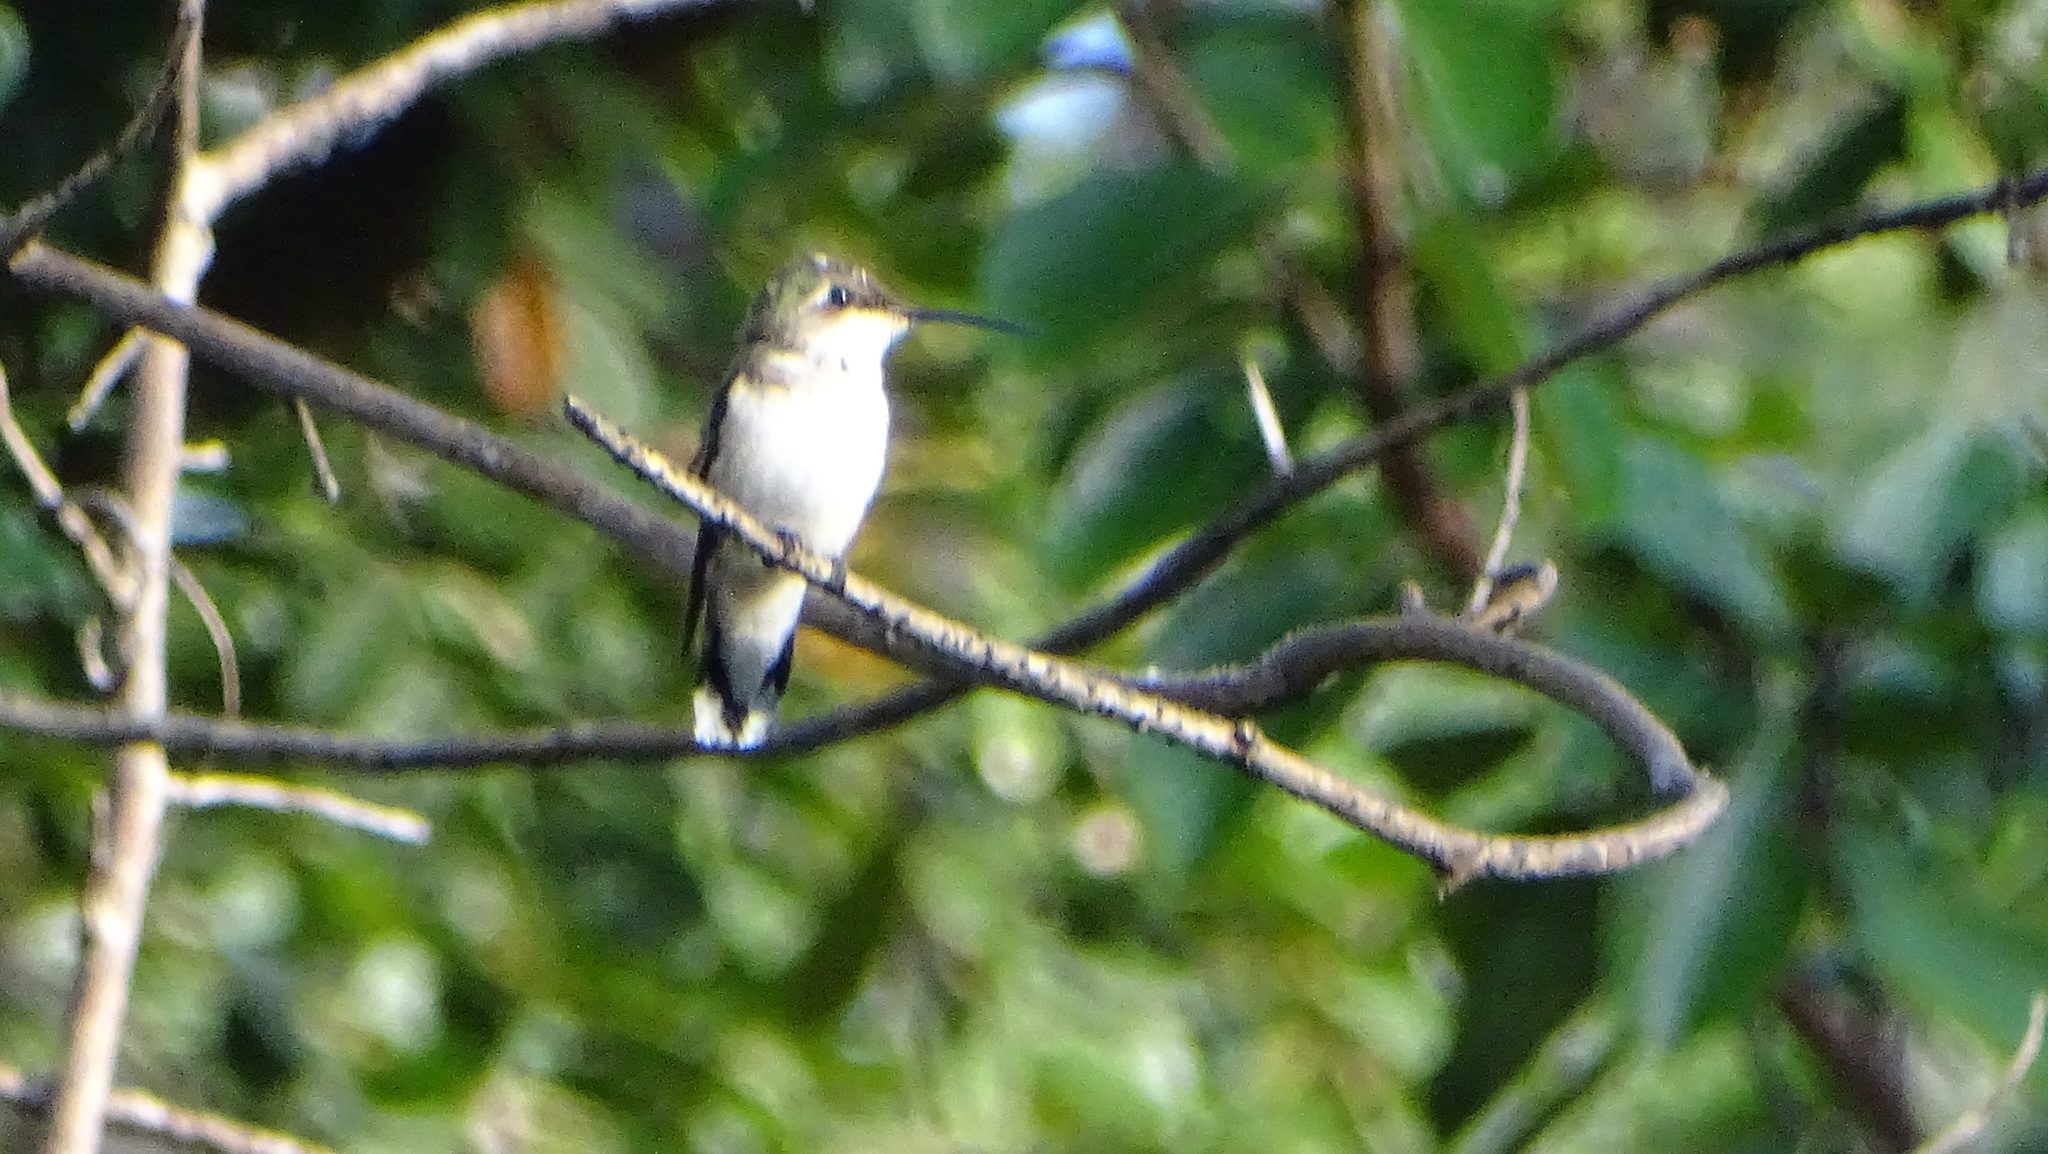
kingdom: Animalia
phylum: Chordata
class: Aves
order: Apodiformes
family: Trochilidae
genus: Archilochus
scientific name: Archilochus colubris
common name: Ruby-throated hummingbird
